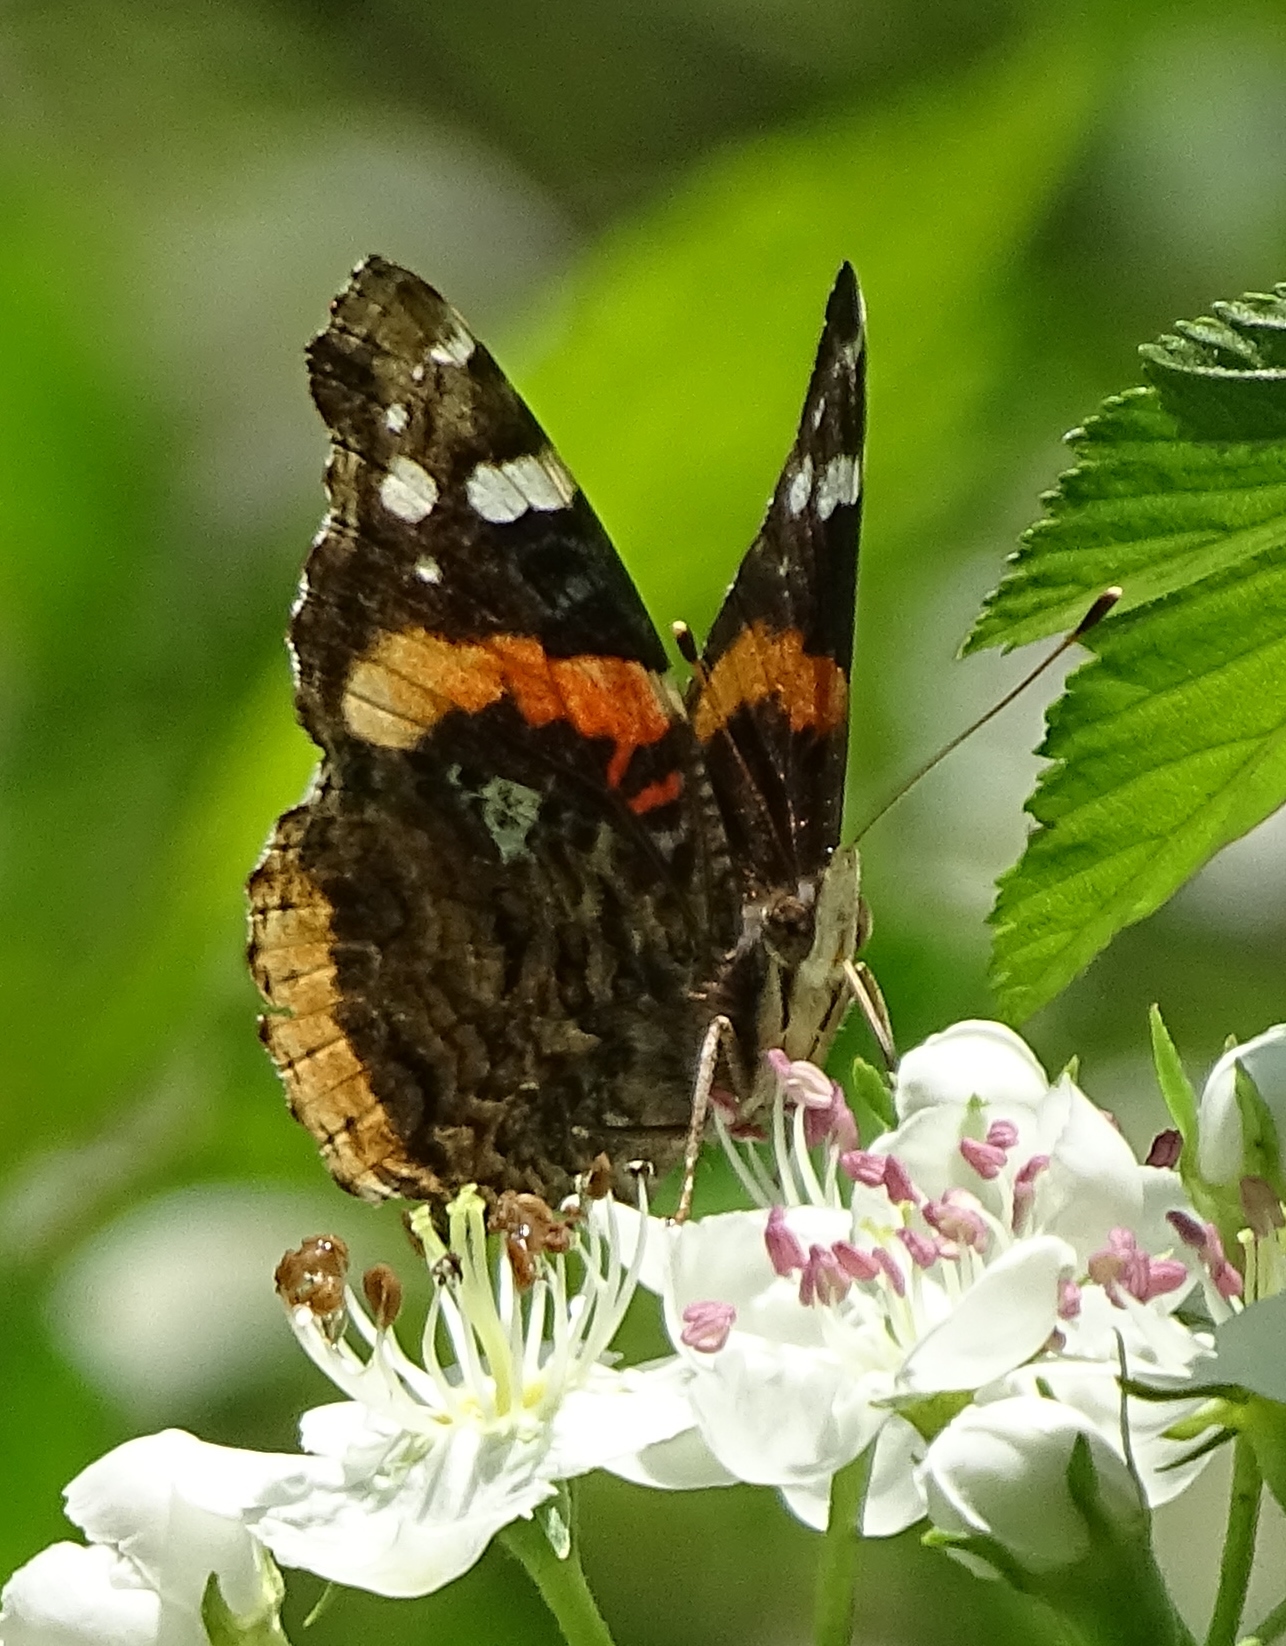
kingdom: Animalia
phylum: Arthropoda
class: Insecta
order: Lepidoptera
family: Nymphalidae
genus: Vanessa
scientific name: Vanessa atalanta
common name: Red admiral
